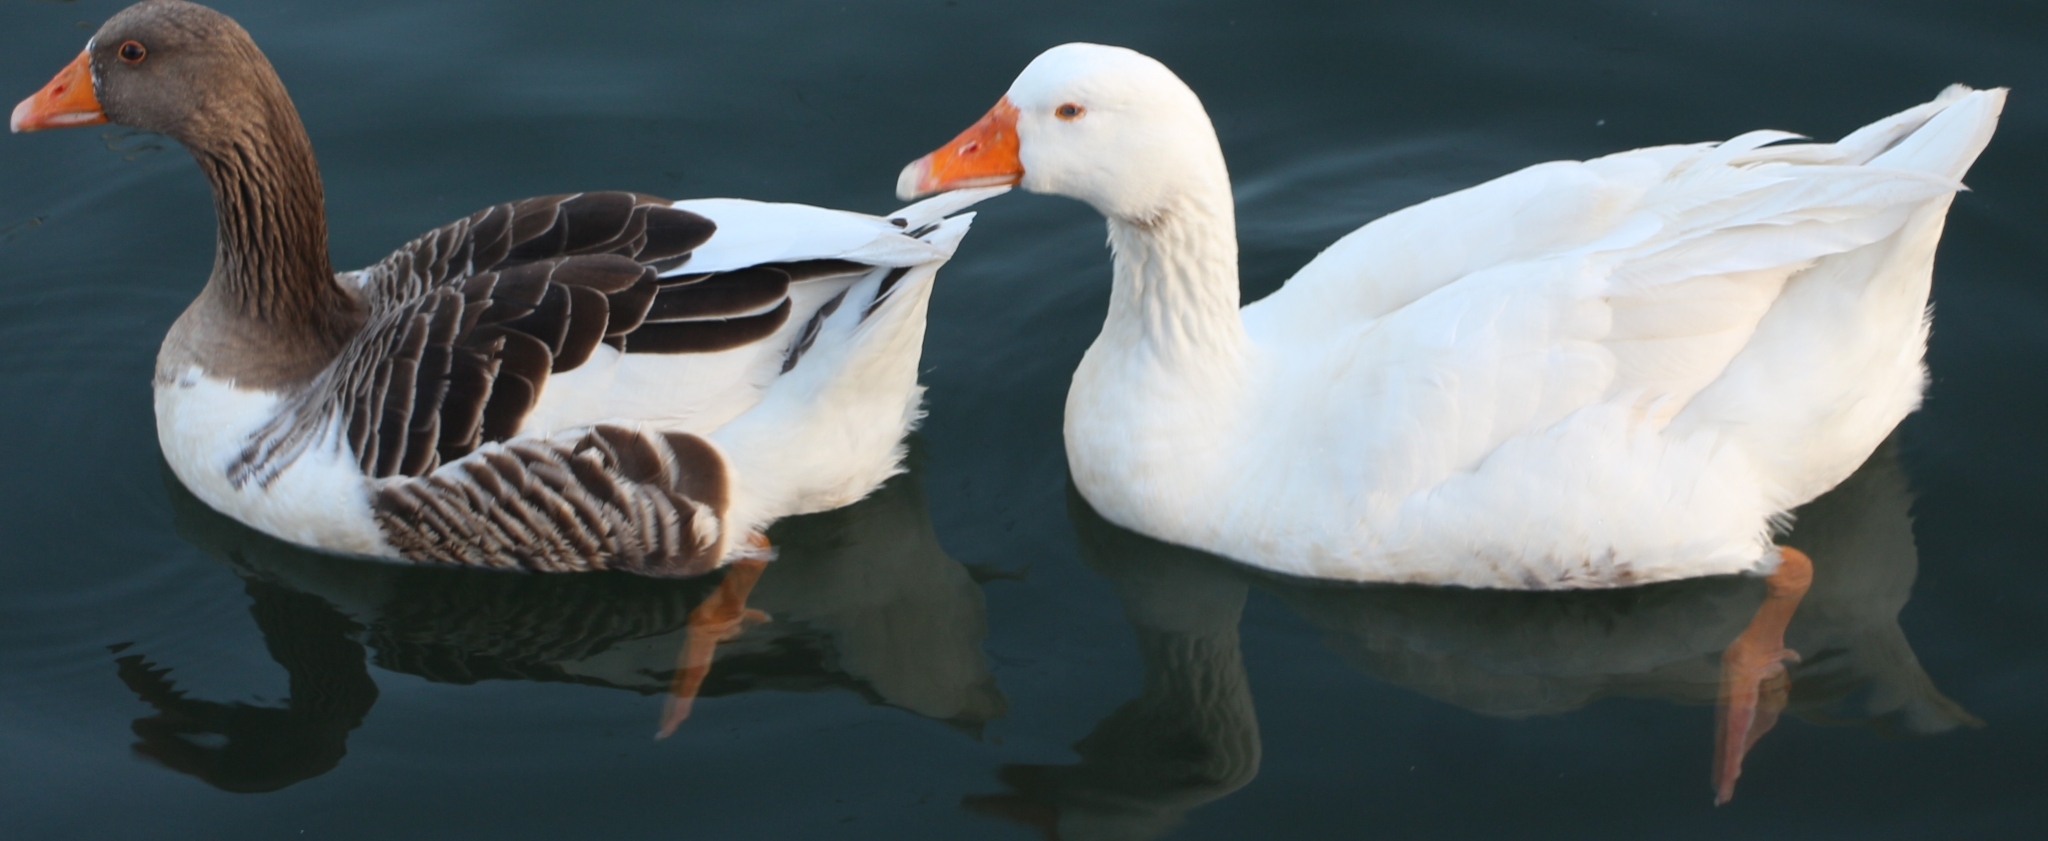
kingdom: Animalia
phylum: Chordata
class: Aves
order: Anseriformes
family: Anatidae
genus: Anser
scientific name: Anser anser
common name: Greylag goose
